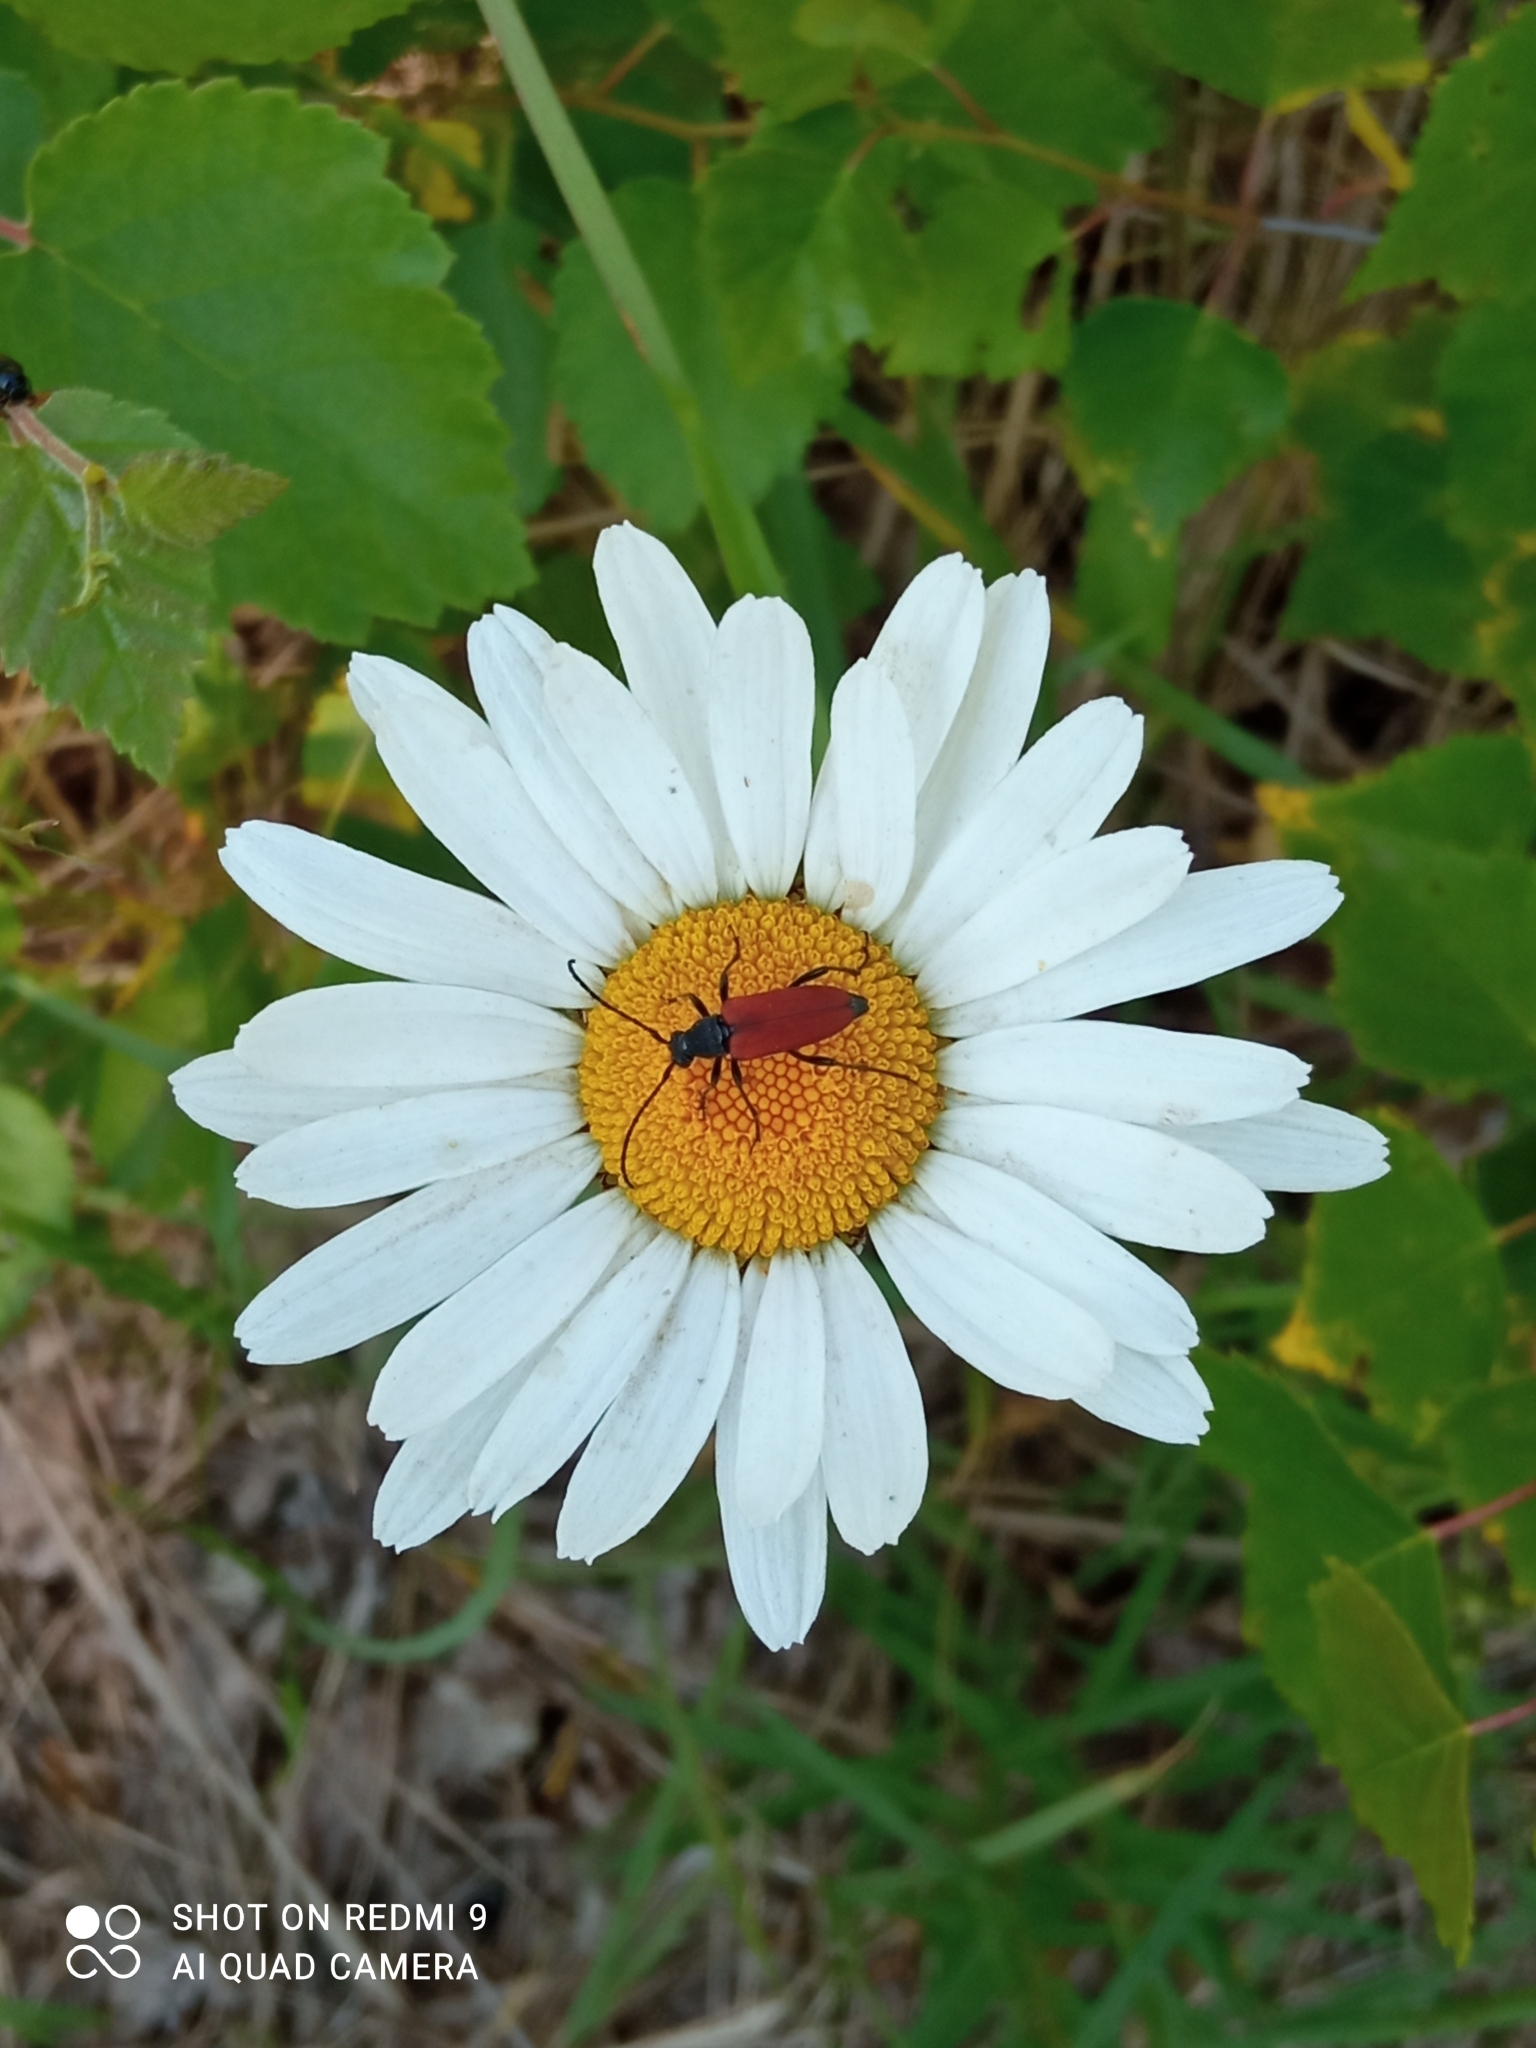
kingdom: Animalia
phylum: Arthropoda
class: Insecta
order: Coleoptera
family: Cerambycidae
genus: Anastrangalia
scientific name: Anastrangalia sanguinolenta
